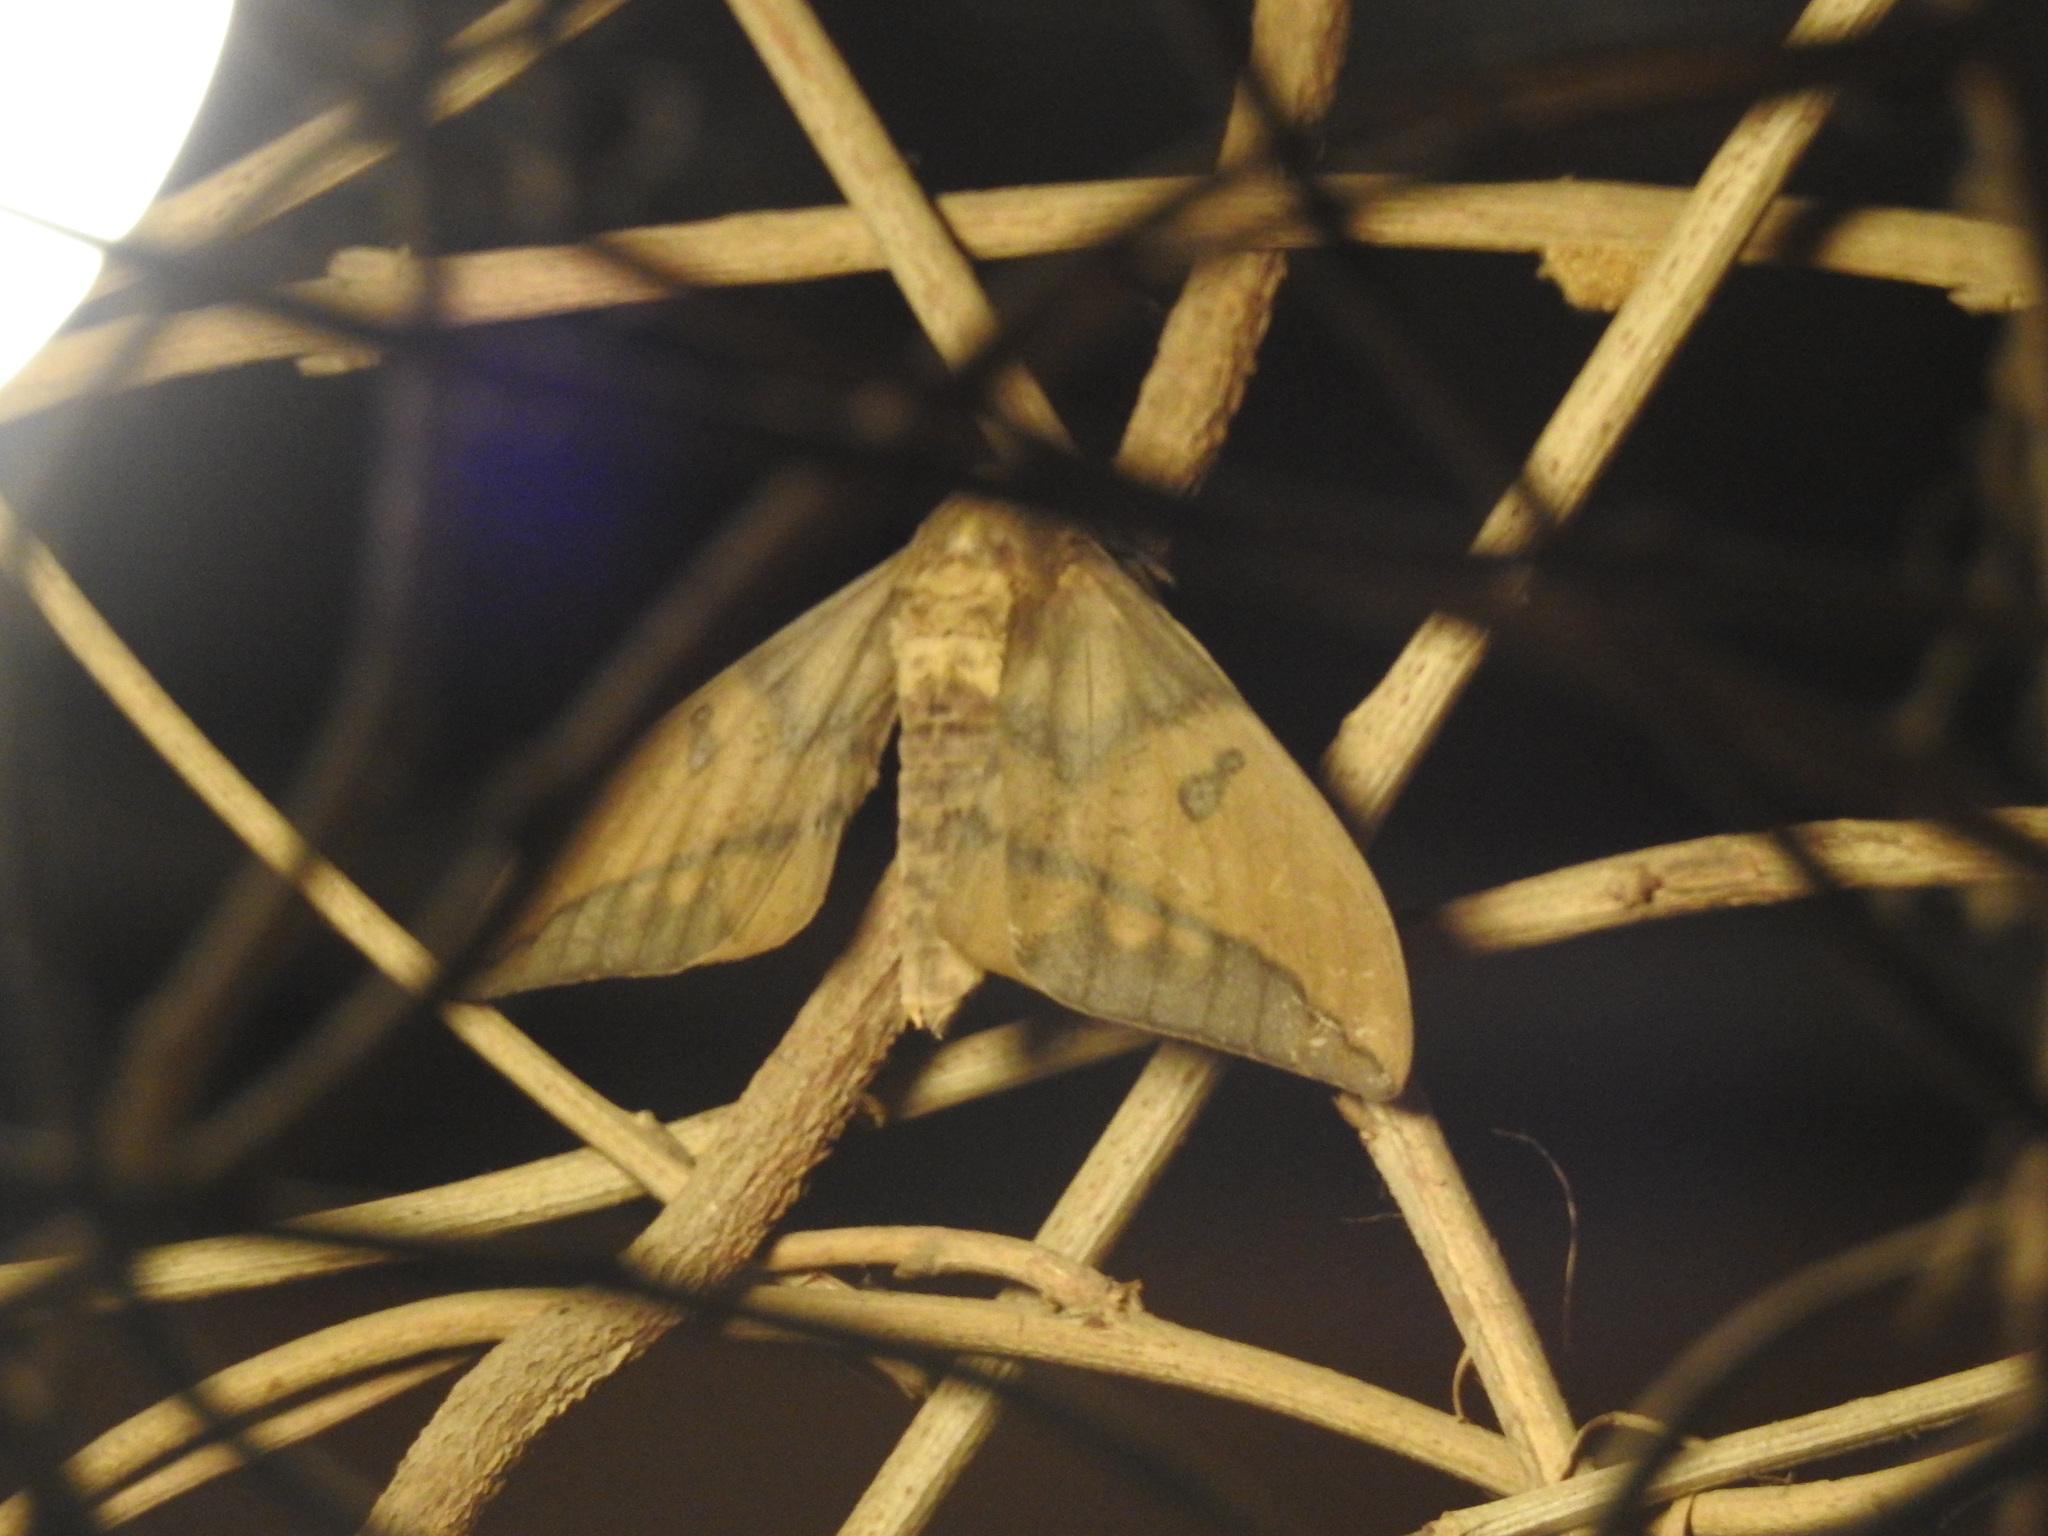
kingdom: Animalia
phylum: Arthropoda
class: Insecta
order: Lepidoptera
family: Saturniidae
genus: Eacles
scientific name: Eacles imperialis
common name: Imperial moth
